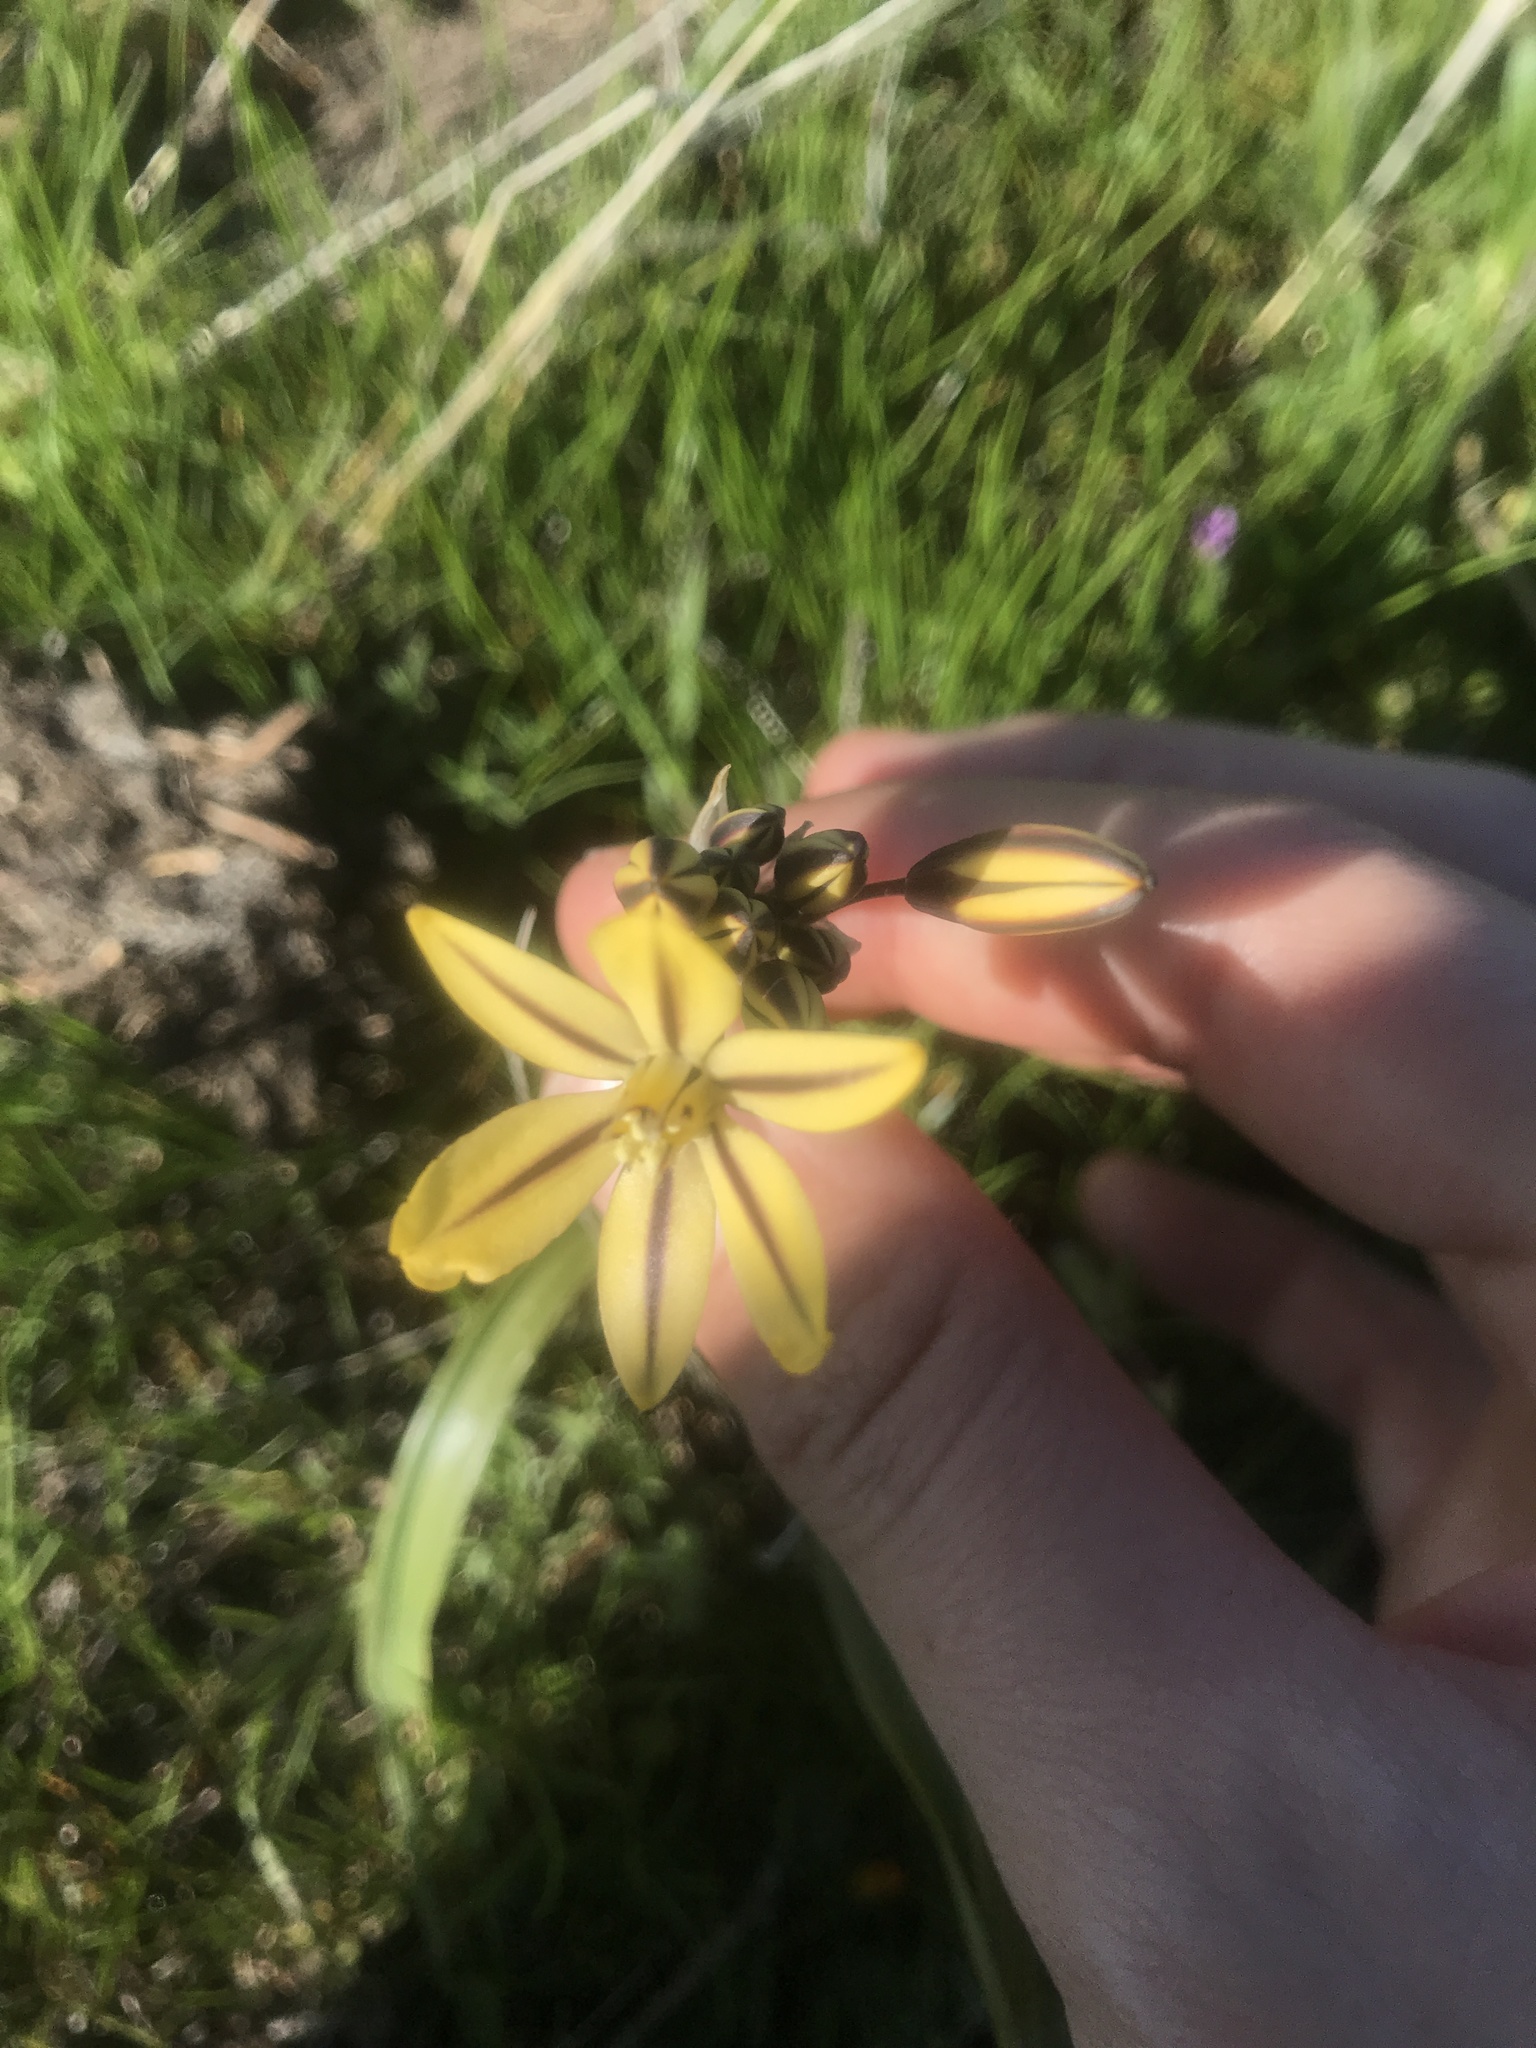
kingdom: Plantae
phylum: Tracheophyta
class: Liliopsida
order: Asparagales
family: Asparagaceae
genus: Triteleia
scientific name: Triteleia ixioides
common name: Yellow-brodiaea
